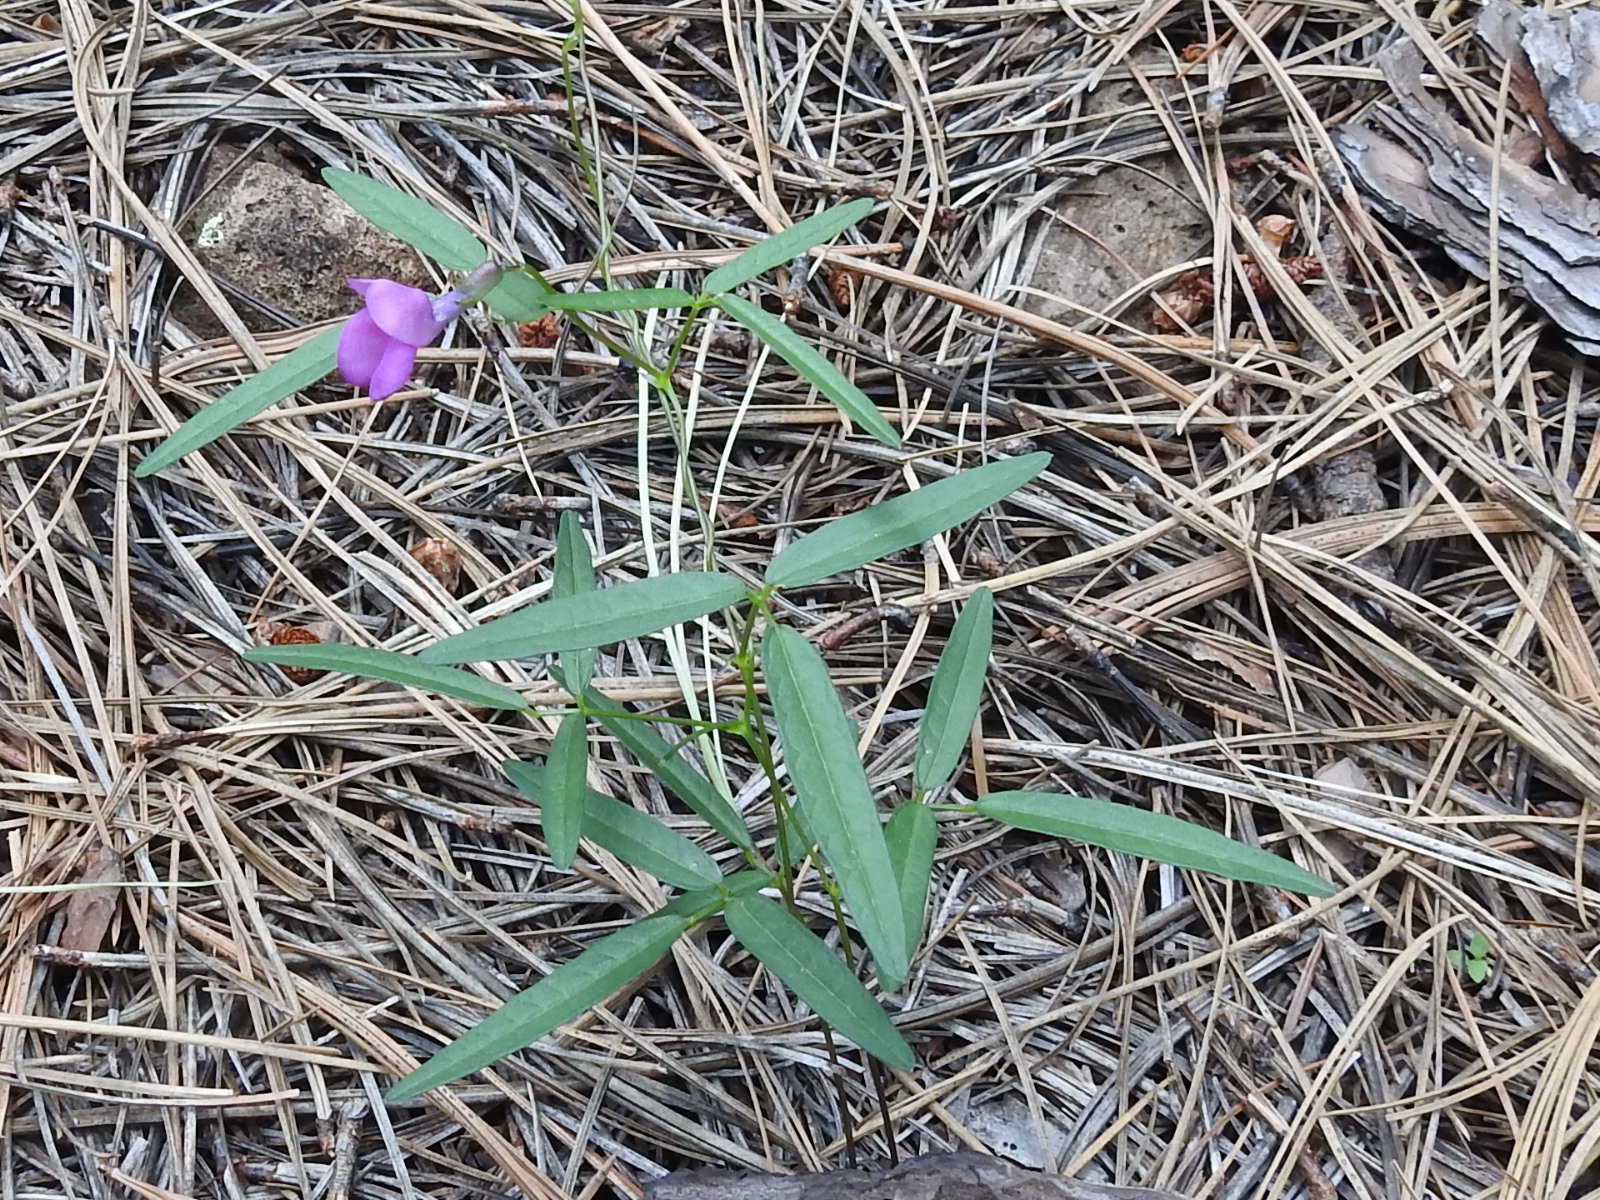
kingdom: Plantae
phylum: Tracheophyta
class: Magnoliopsida
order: Fabales
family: Fabaceae
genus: Phaseolus
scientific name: Phaseolus parvulus
